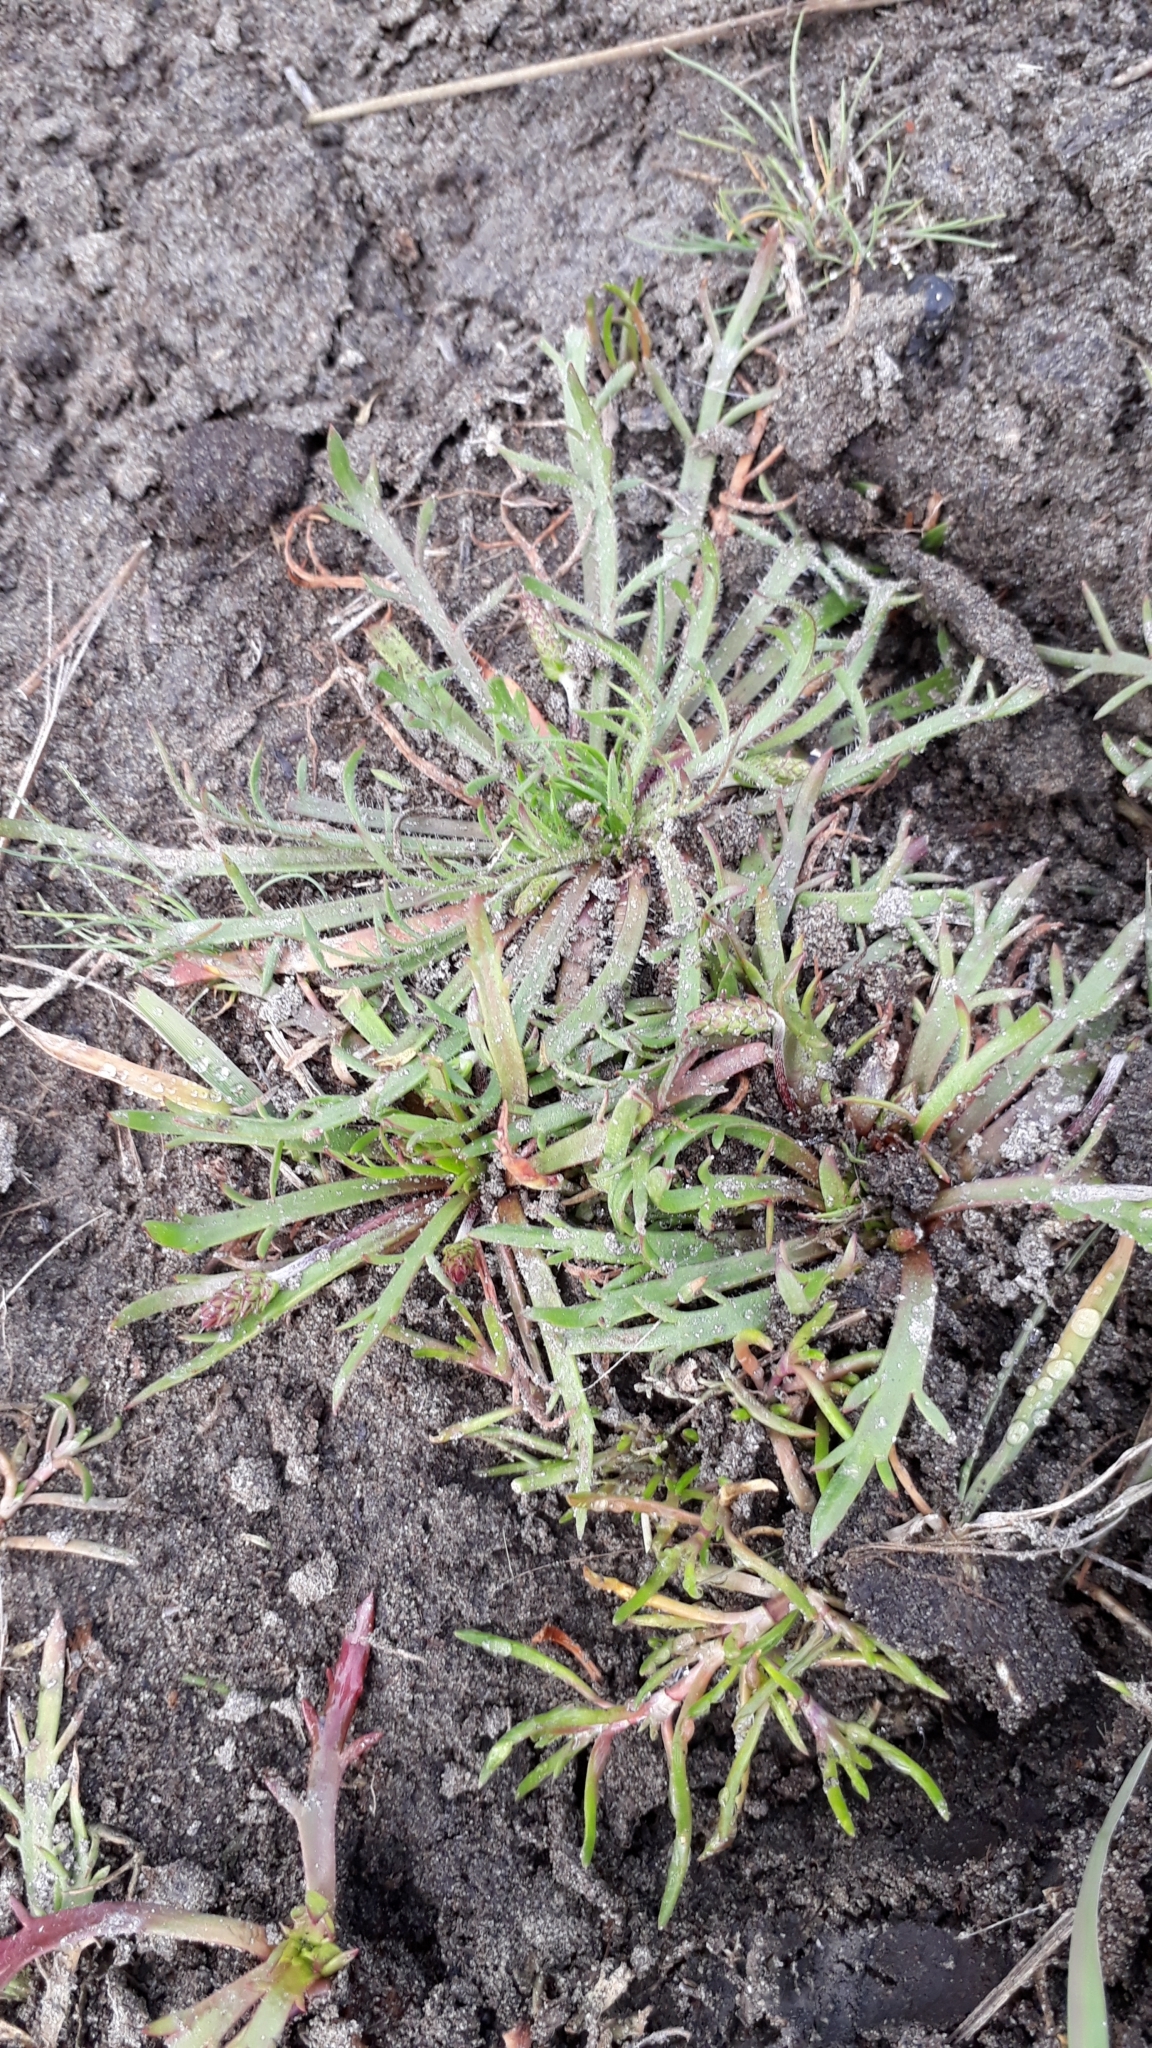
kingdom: Plantae
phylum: Tracheophyta
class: Magnoliopsida
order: Lamiales
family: Plantaginaceae
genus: Plantago
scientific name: Plantago coronopus
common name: Buck's-horn plantain
